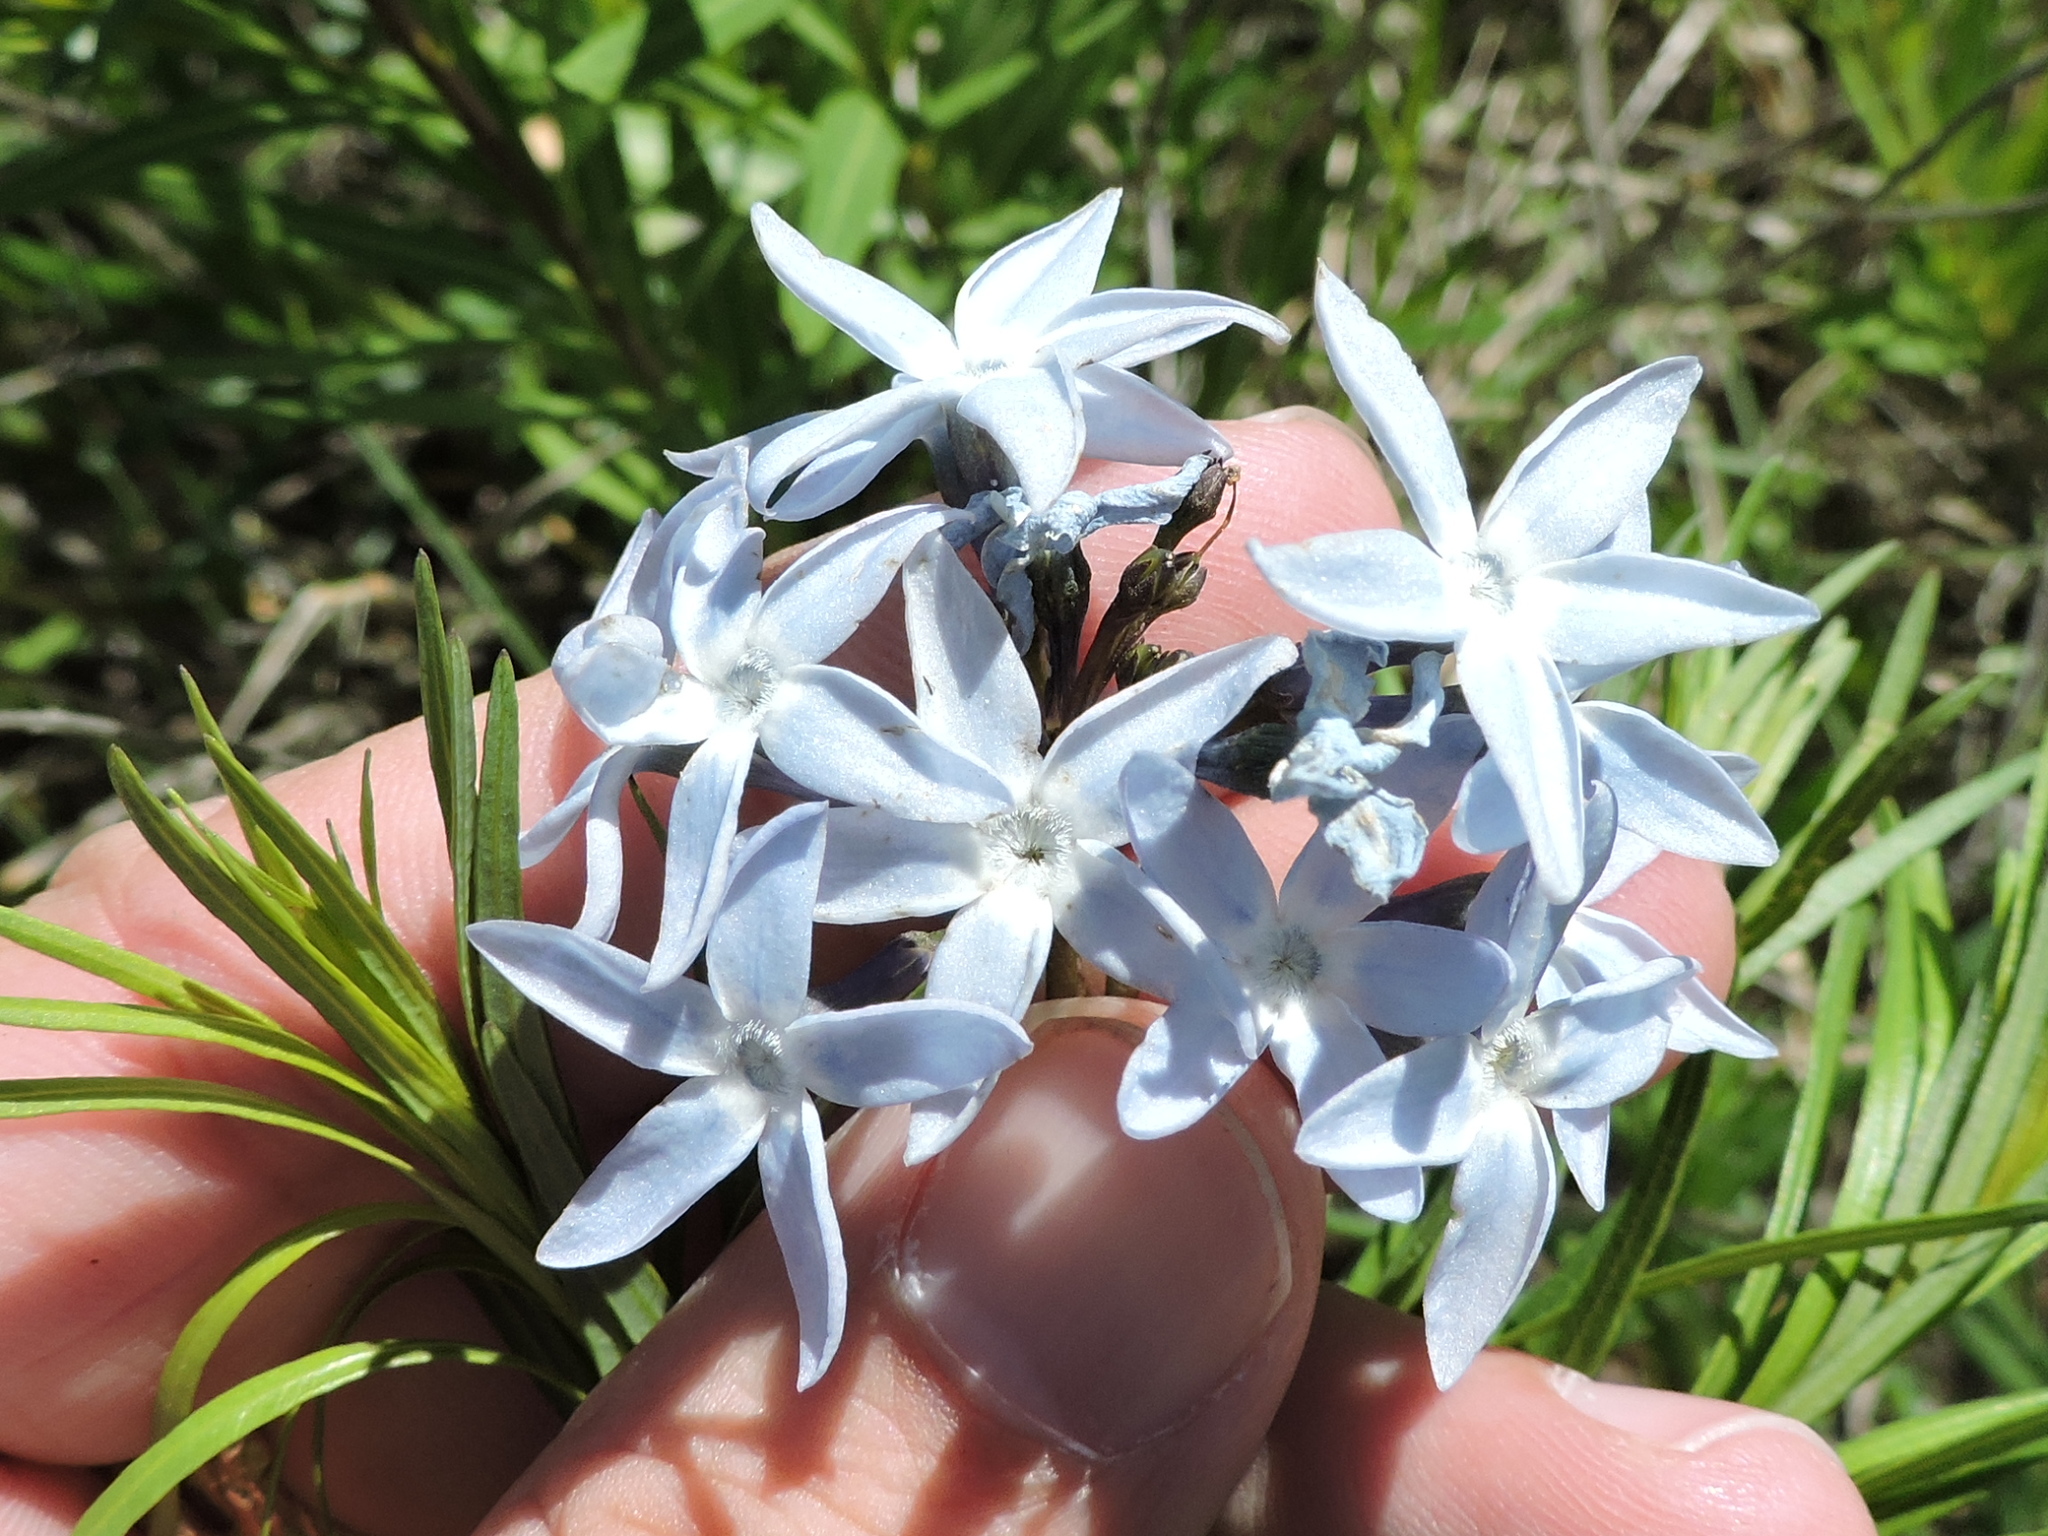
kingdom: Plantae
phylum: Tracheophyta
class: Magnoliopsida
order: Gentianales
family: Apocynaceae
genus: Amsonia
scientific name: Amsonia ciliata
